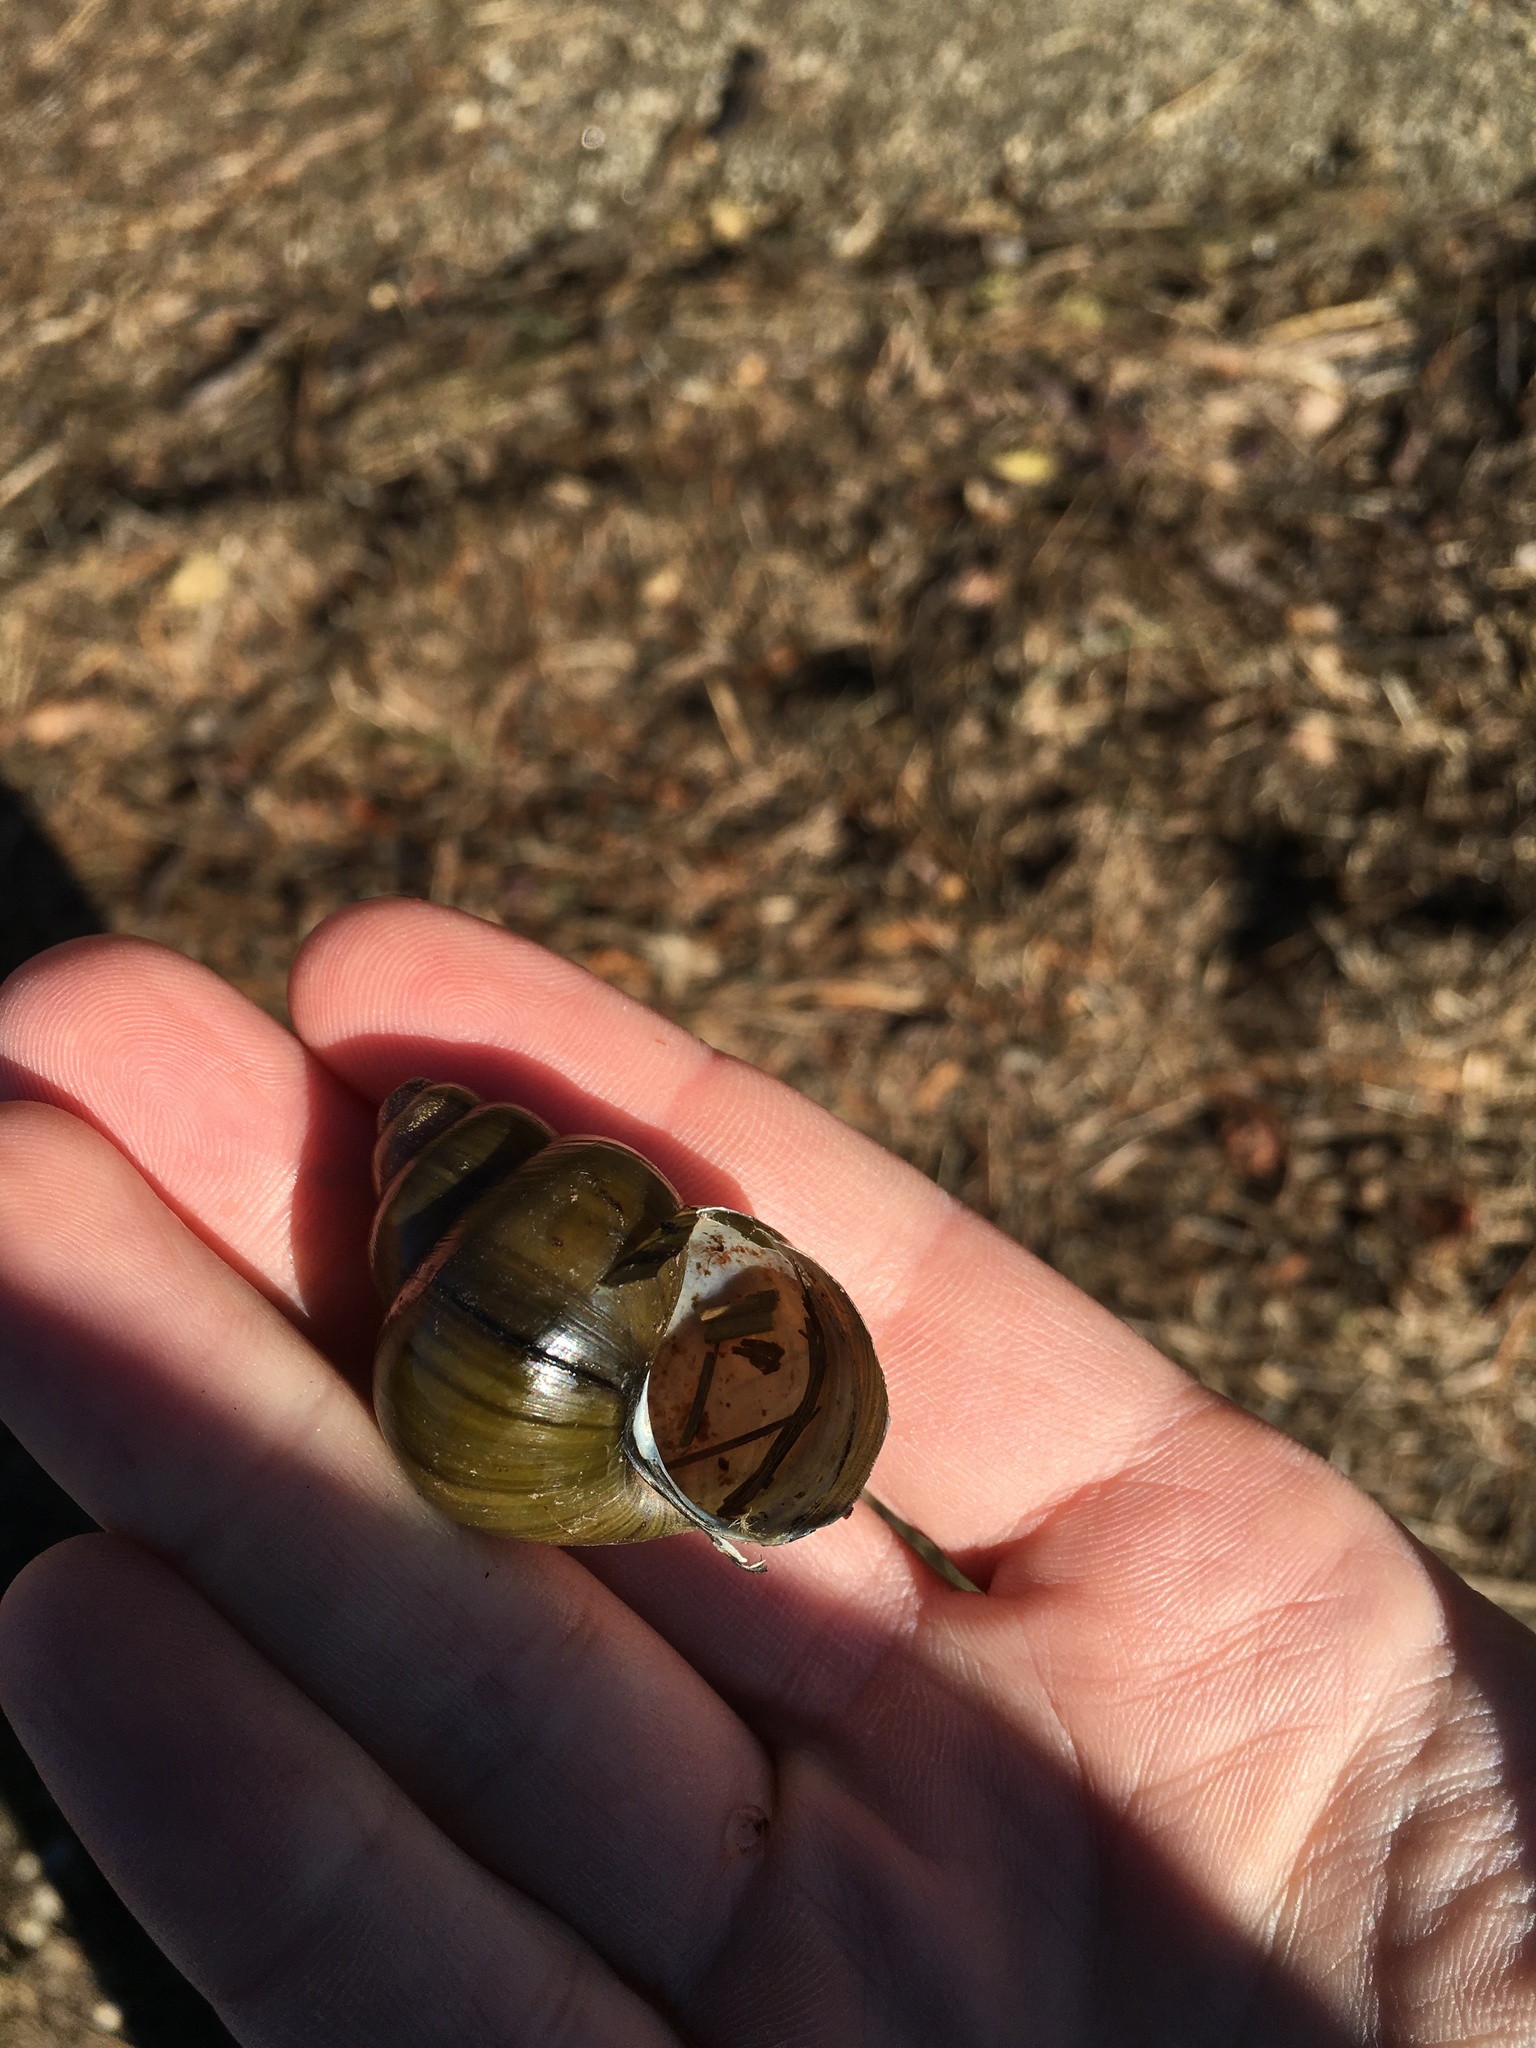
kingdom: Animalia
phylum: Mollusca
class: Gastropoda
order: Architaenioglossa
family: Viviparidae
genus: Cipangopaludina
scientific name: Cipangopaludina chinensis
